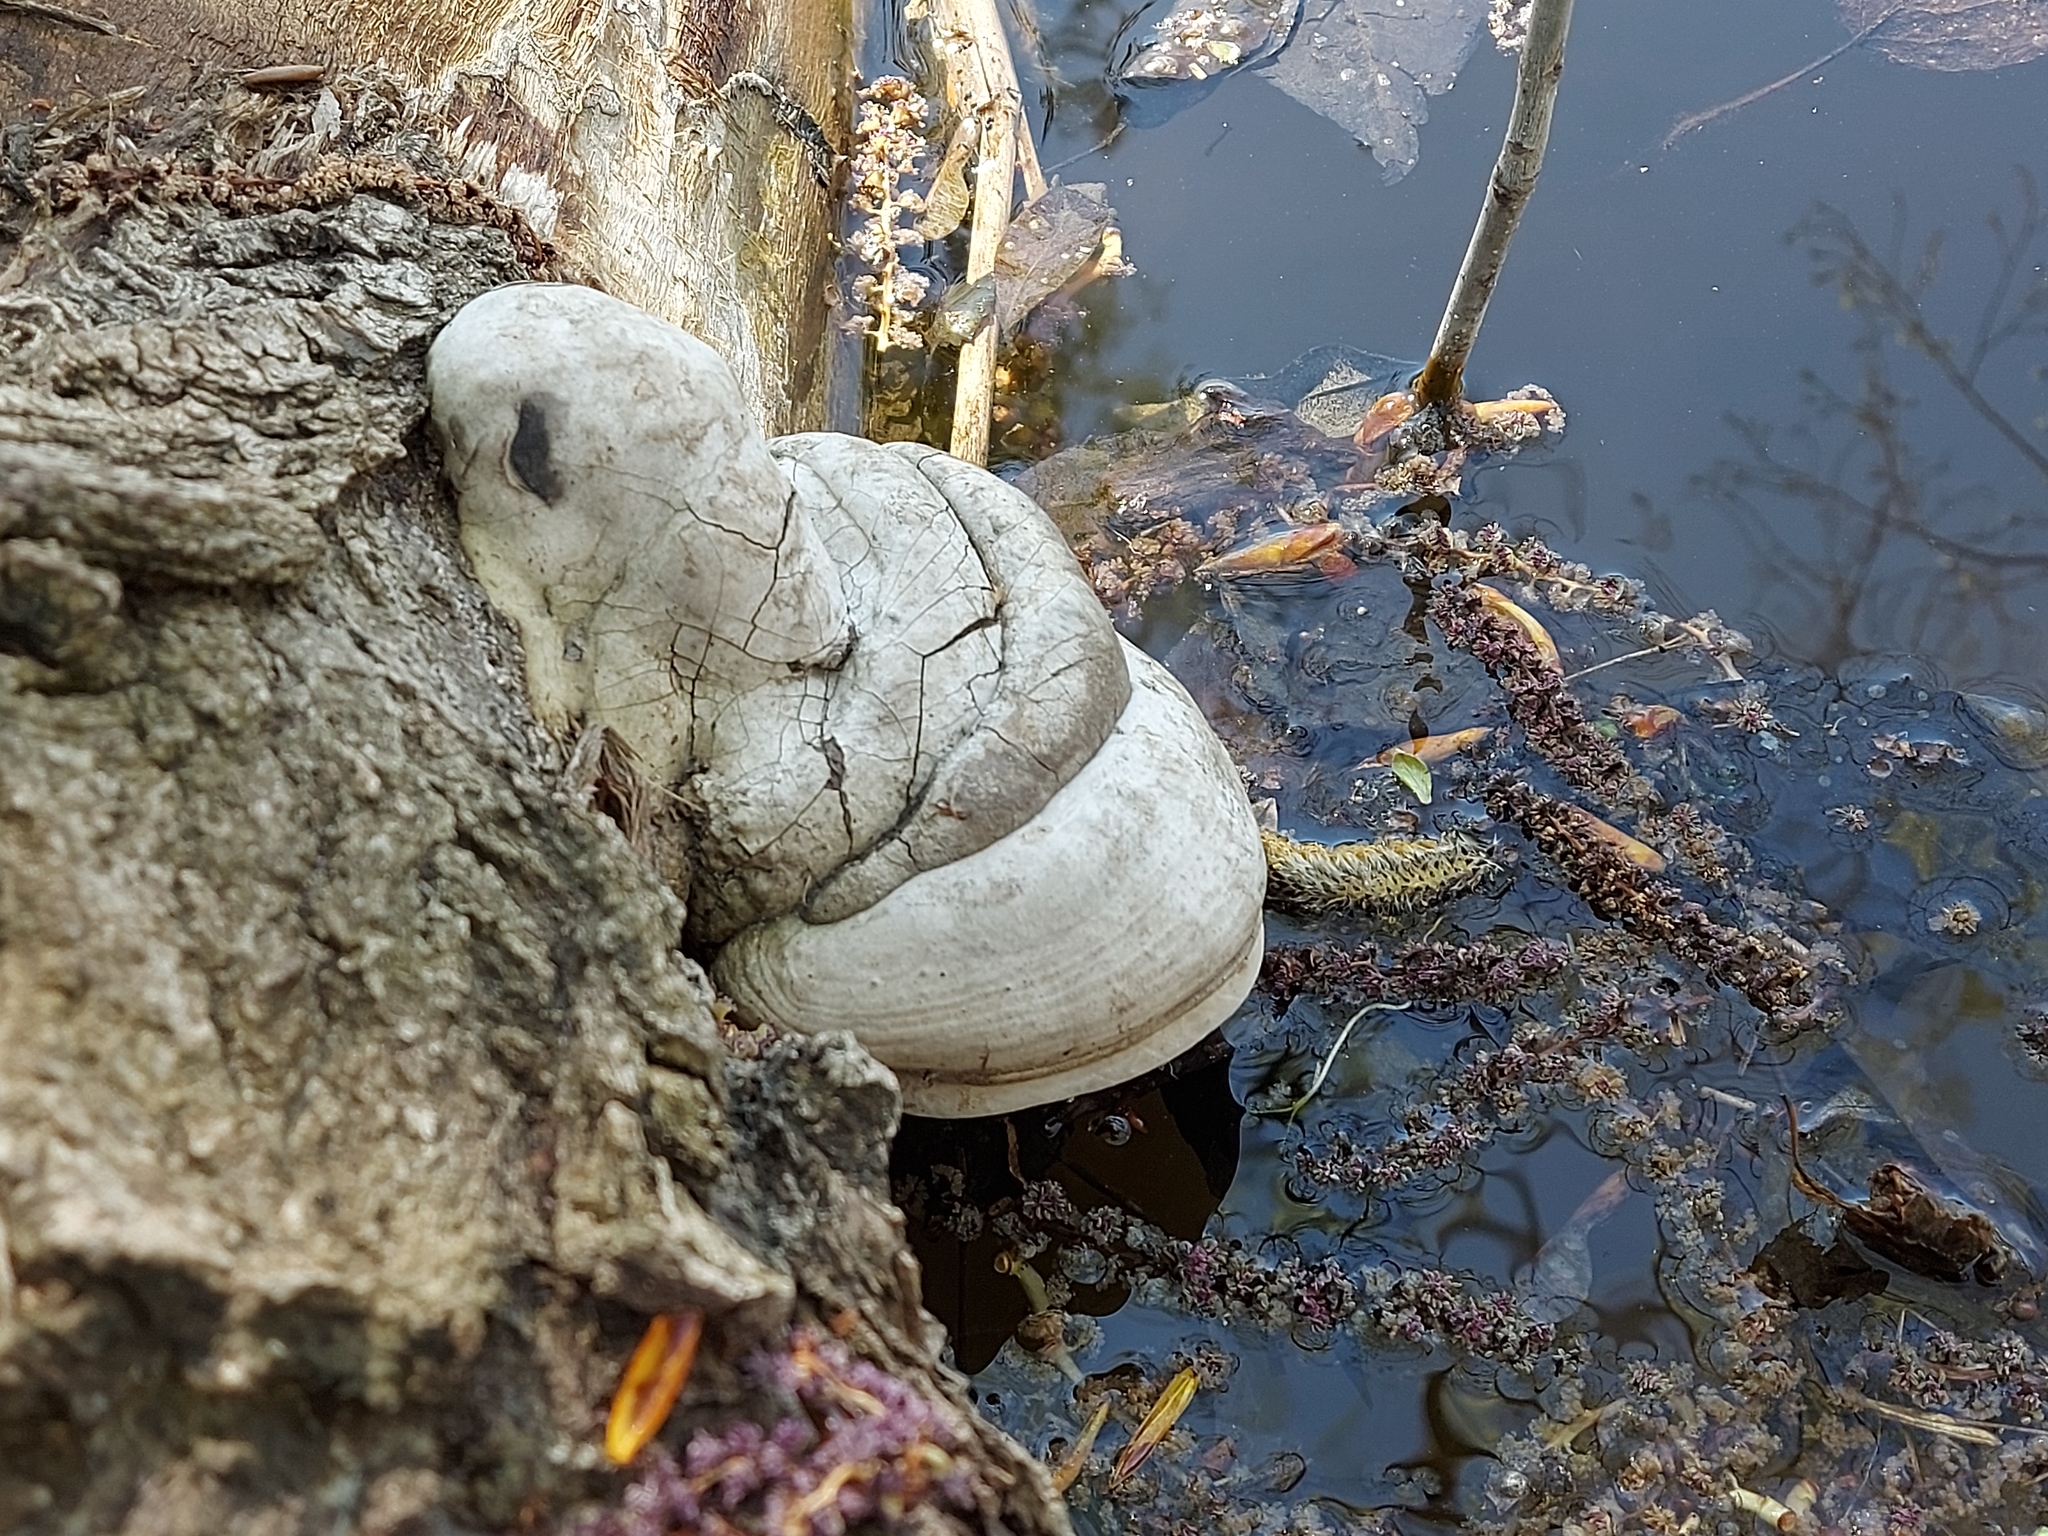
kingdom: Fungi
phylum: Basidiomycota
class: Agaricomycetes
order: Polyporales
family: Polyporaceae
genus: Fomes
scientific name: Fomes fomentarius
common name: Hoof fungus
